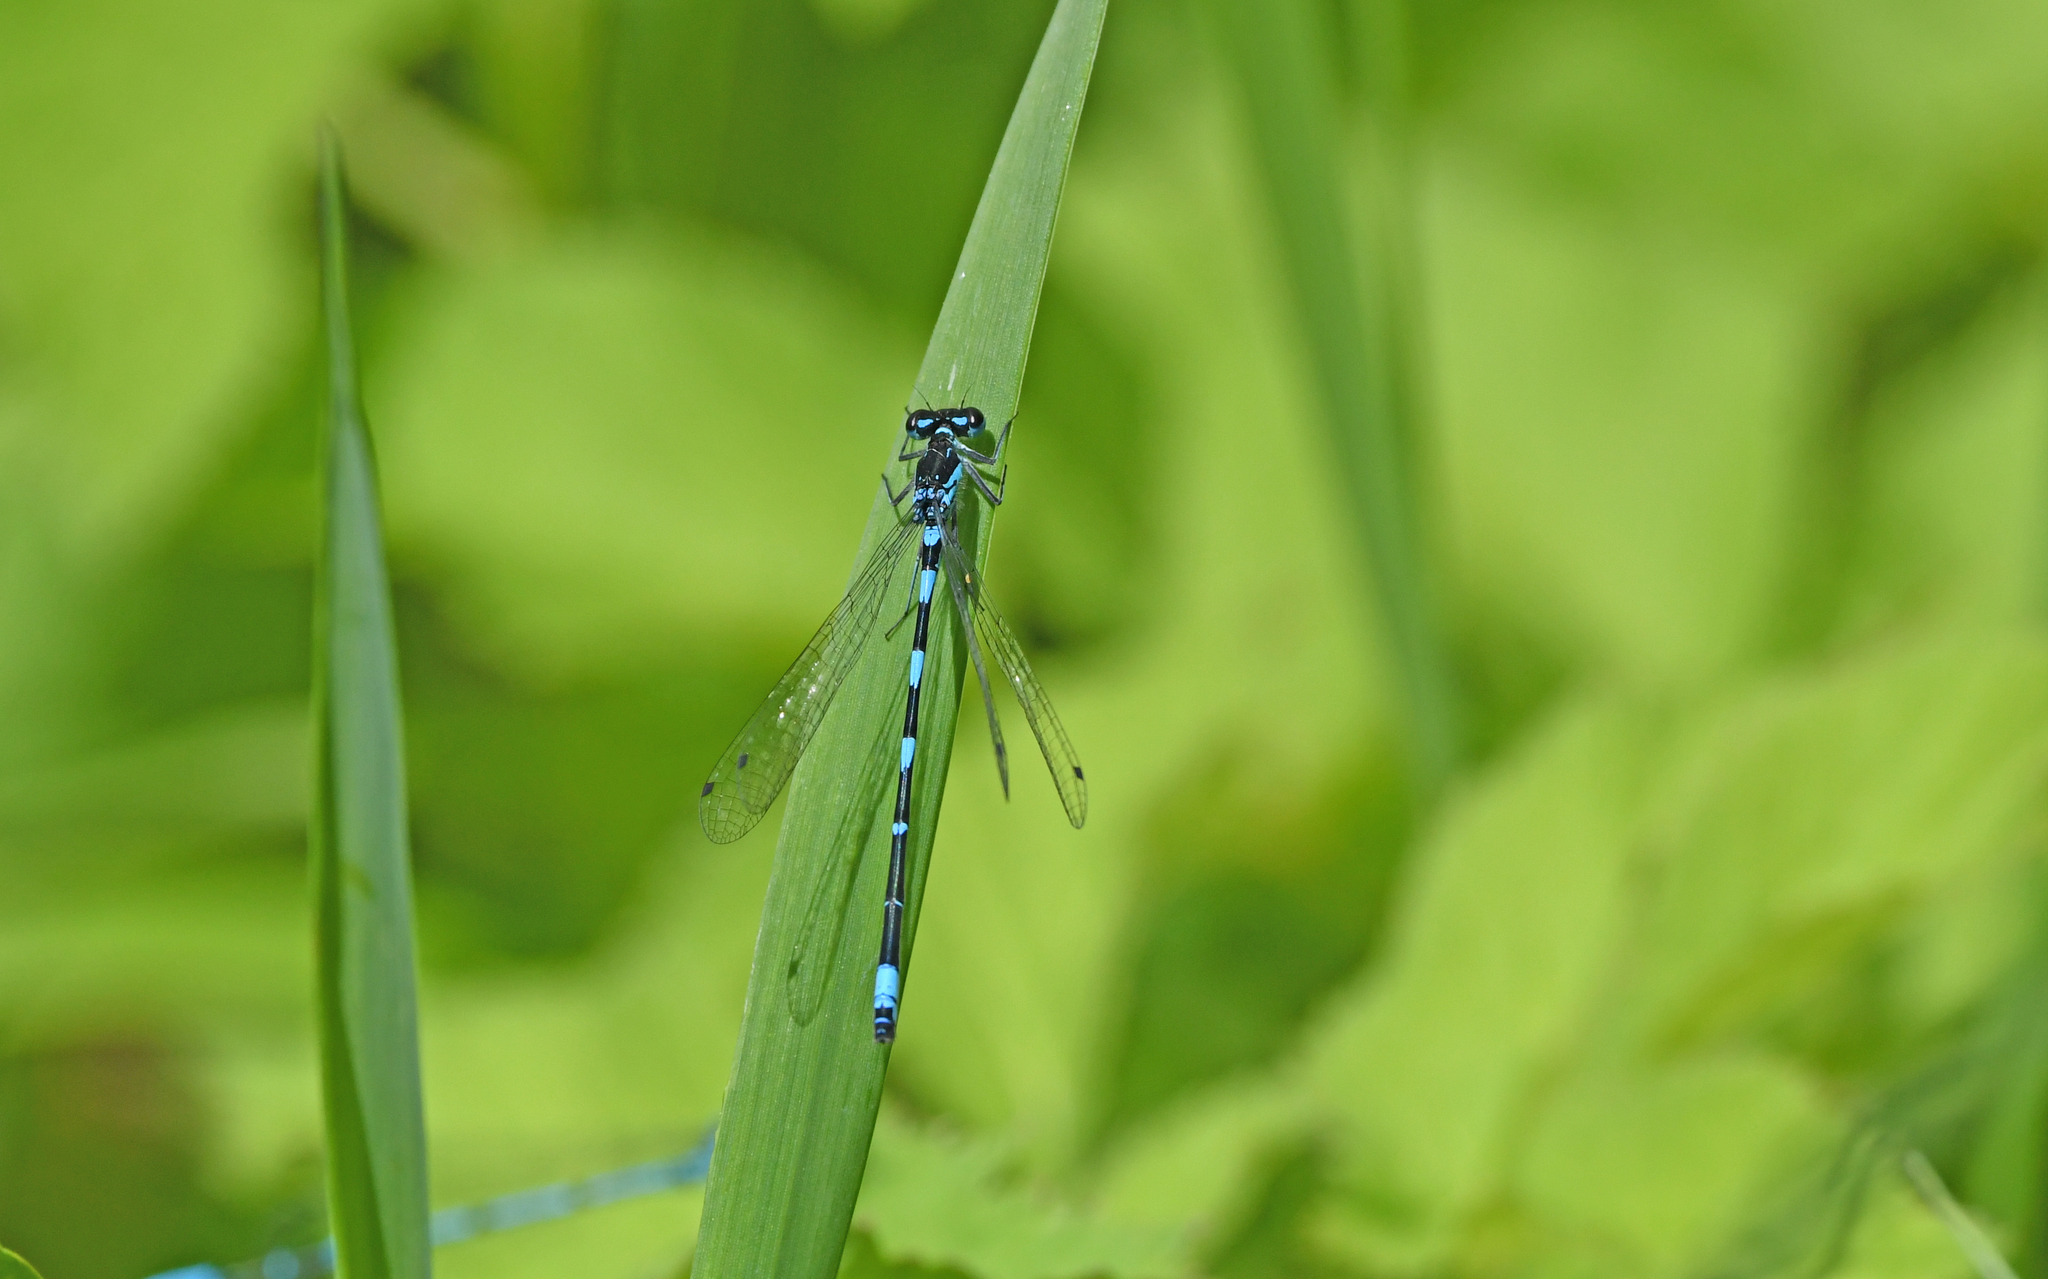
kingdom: Animalia
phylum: Arthropoda
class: Insecta
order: Odonata
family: Coenagrionidae
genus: Coenagrion
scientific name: Coenagrion pulchellum
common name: Variable bluet
